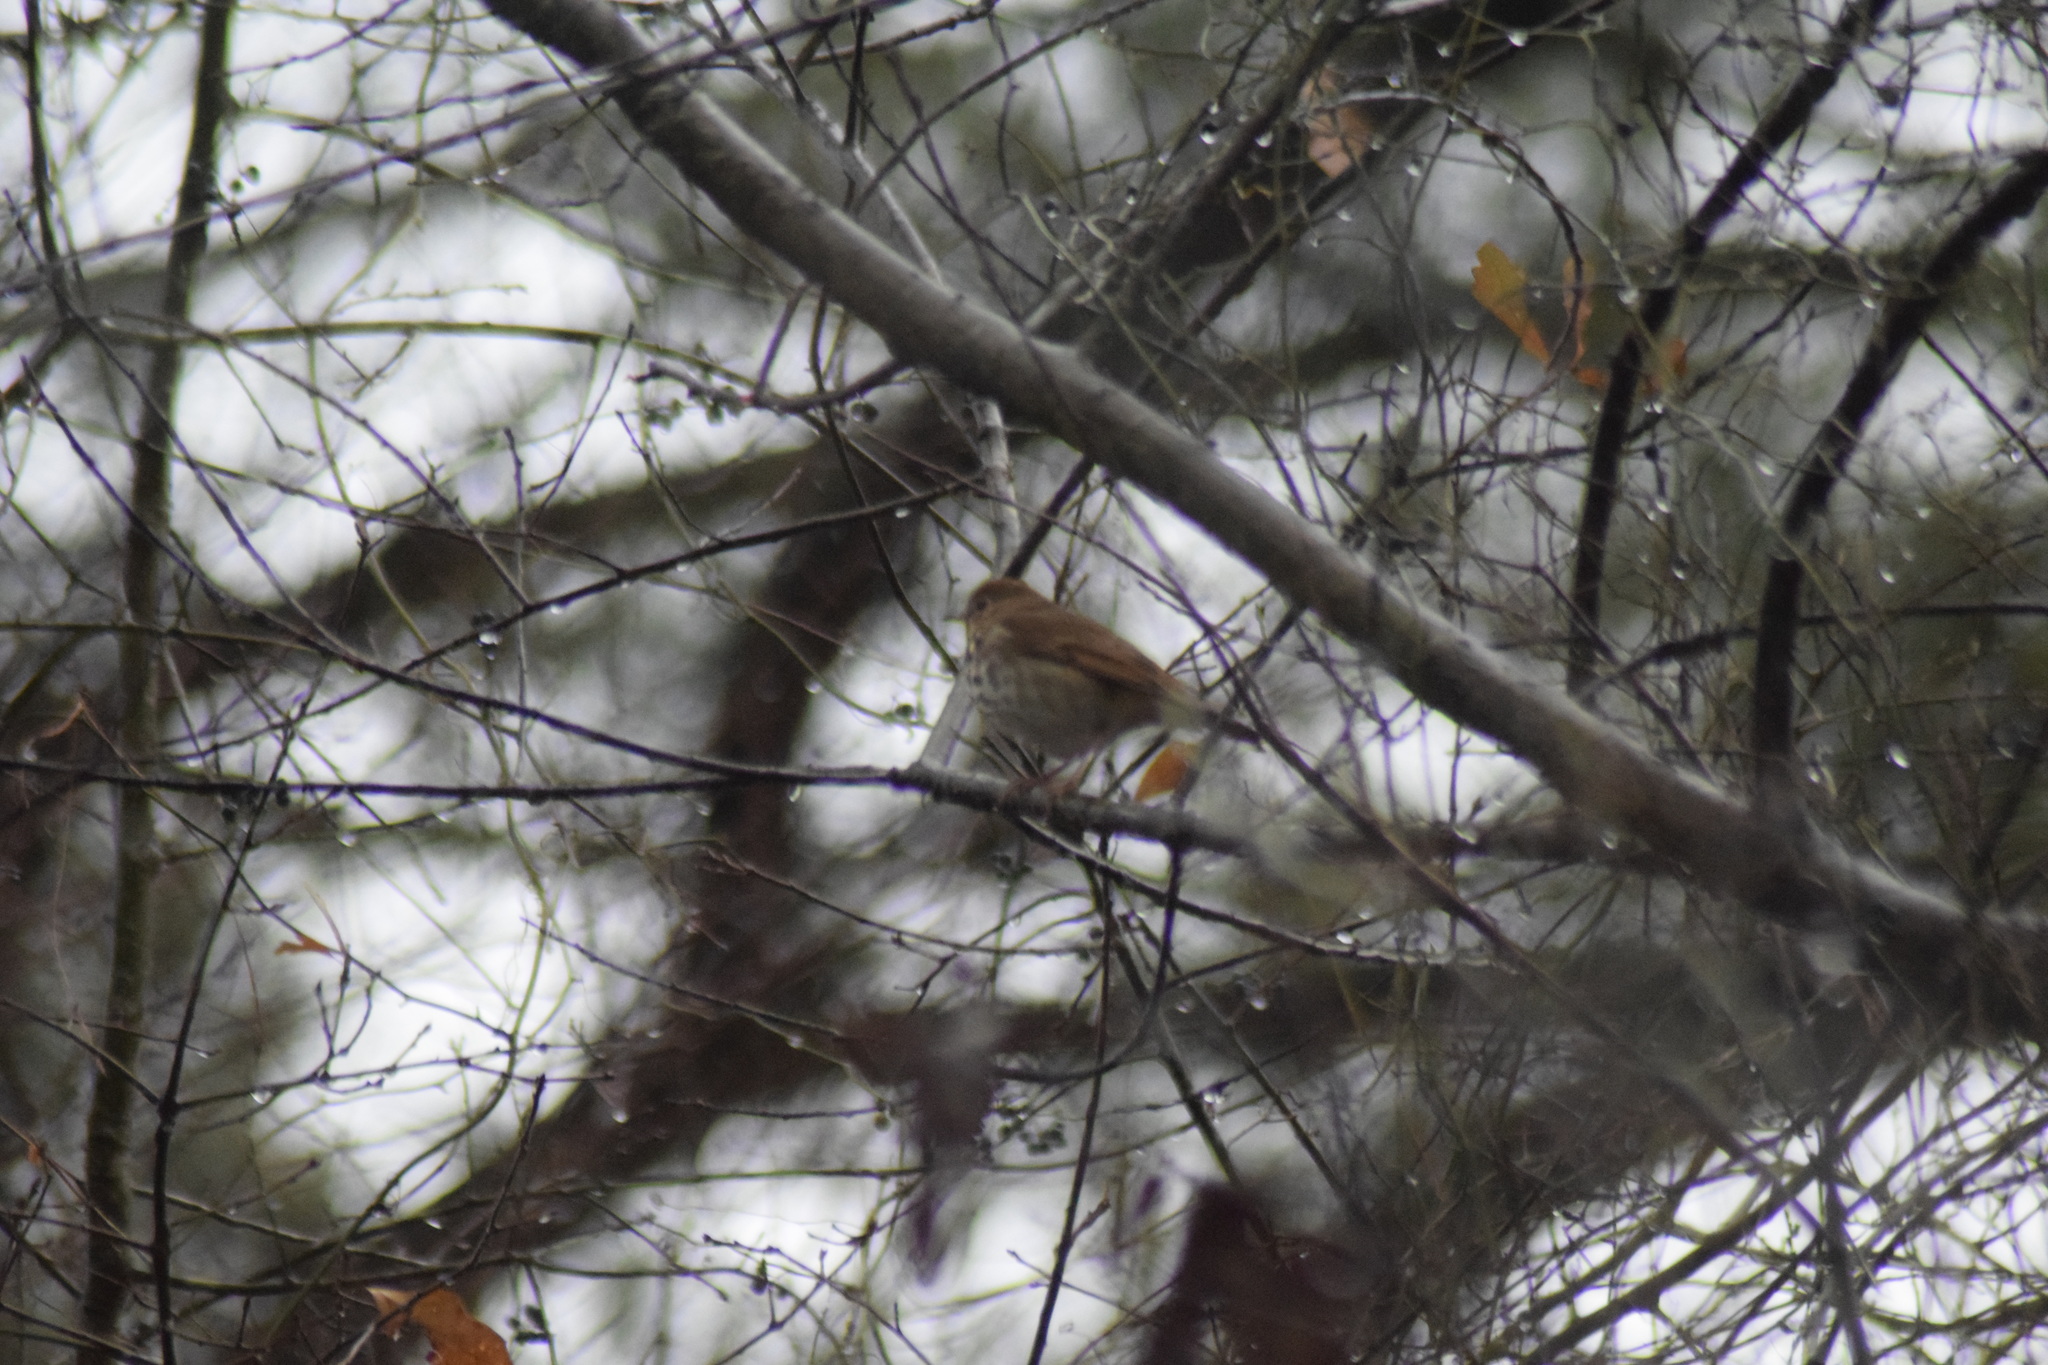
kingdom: Animalia
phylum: Chordata
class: Aves
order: Passeriformes
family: Turdidae
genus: Catharus
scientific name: Catharus guttatus
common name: Hermit thrush
